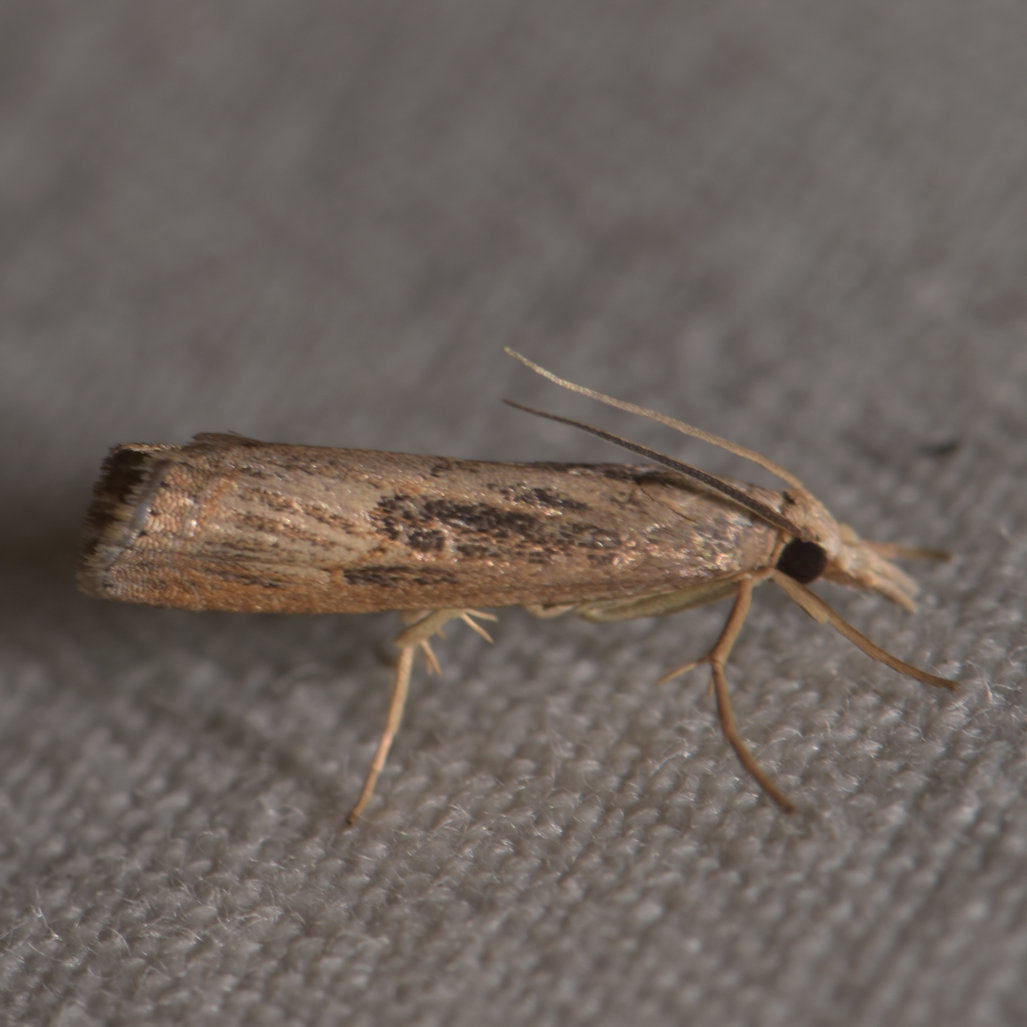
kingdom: Animalia
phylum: Arthropoda
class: Insecta
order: Lepidoptera
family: Crambidae
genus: Parapediasia
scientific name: Parapediasia teterellus
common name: Bluegrass webworm moth
